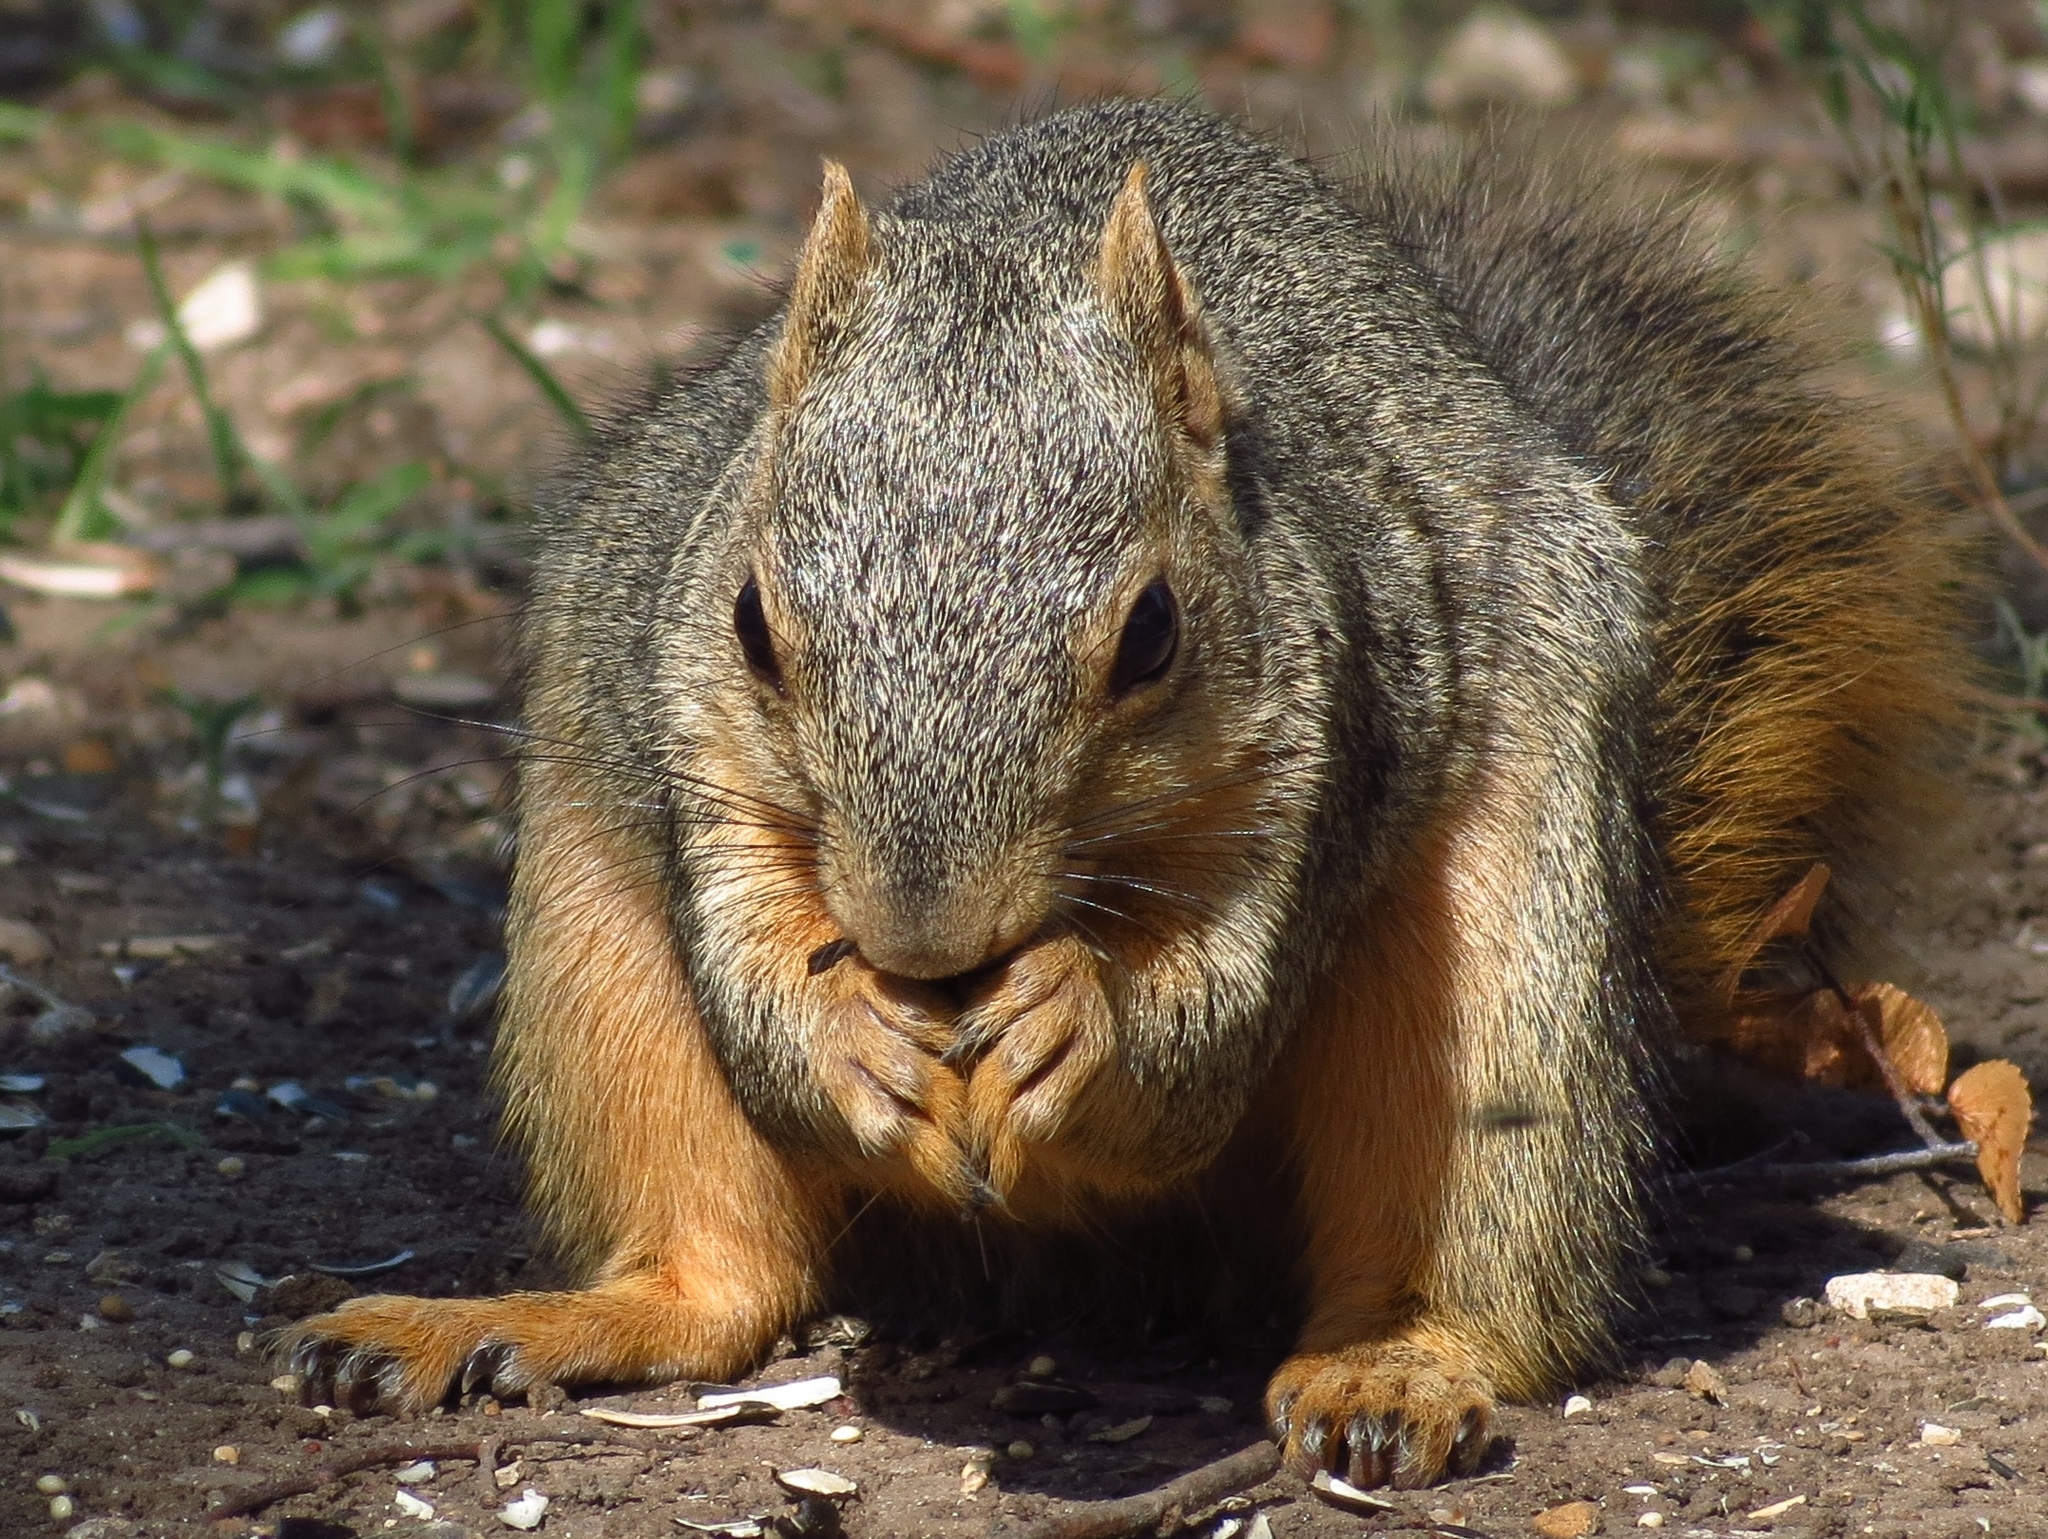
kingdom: Animalia
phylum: Chordata
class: Mammalia
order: Rodentia
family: Sciuridae
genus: Sciurus
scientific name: Sciurus niger
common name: Fox squirrel
